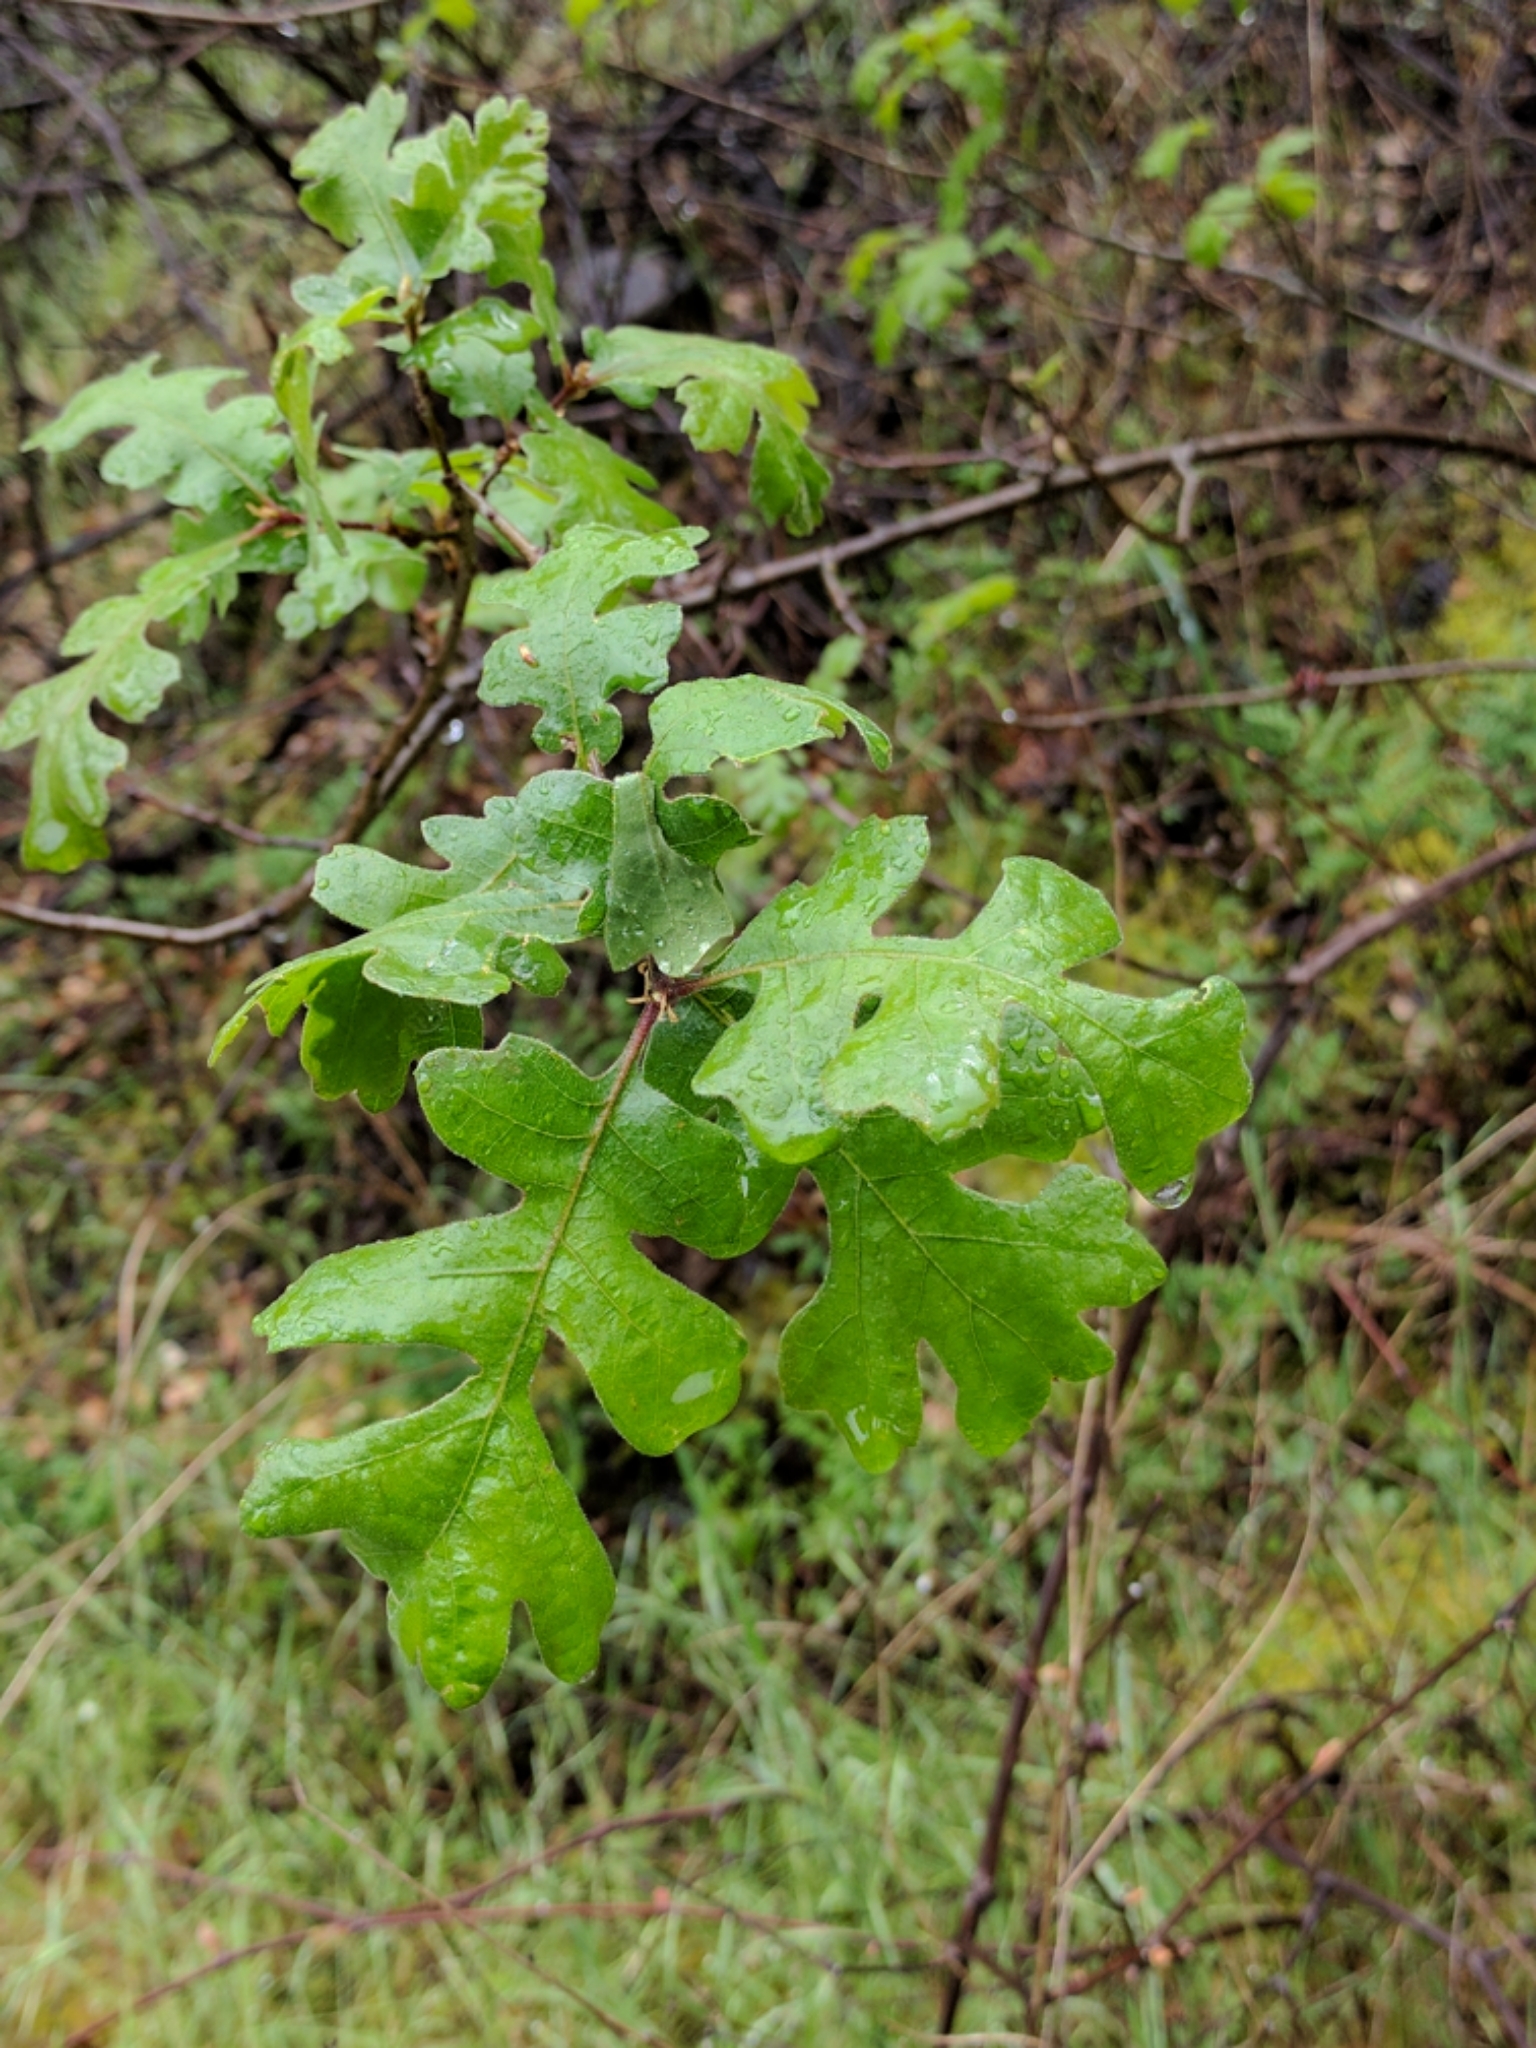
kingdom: Plantae
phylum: Tracheophyta
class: Magnoliopsida
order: Fagales
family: Fagaceae
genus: Quercus
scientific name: Quercus lobata
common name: Valley oak
